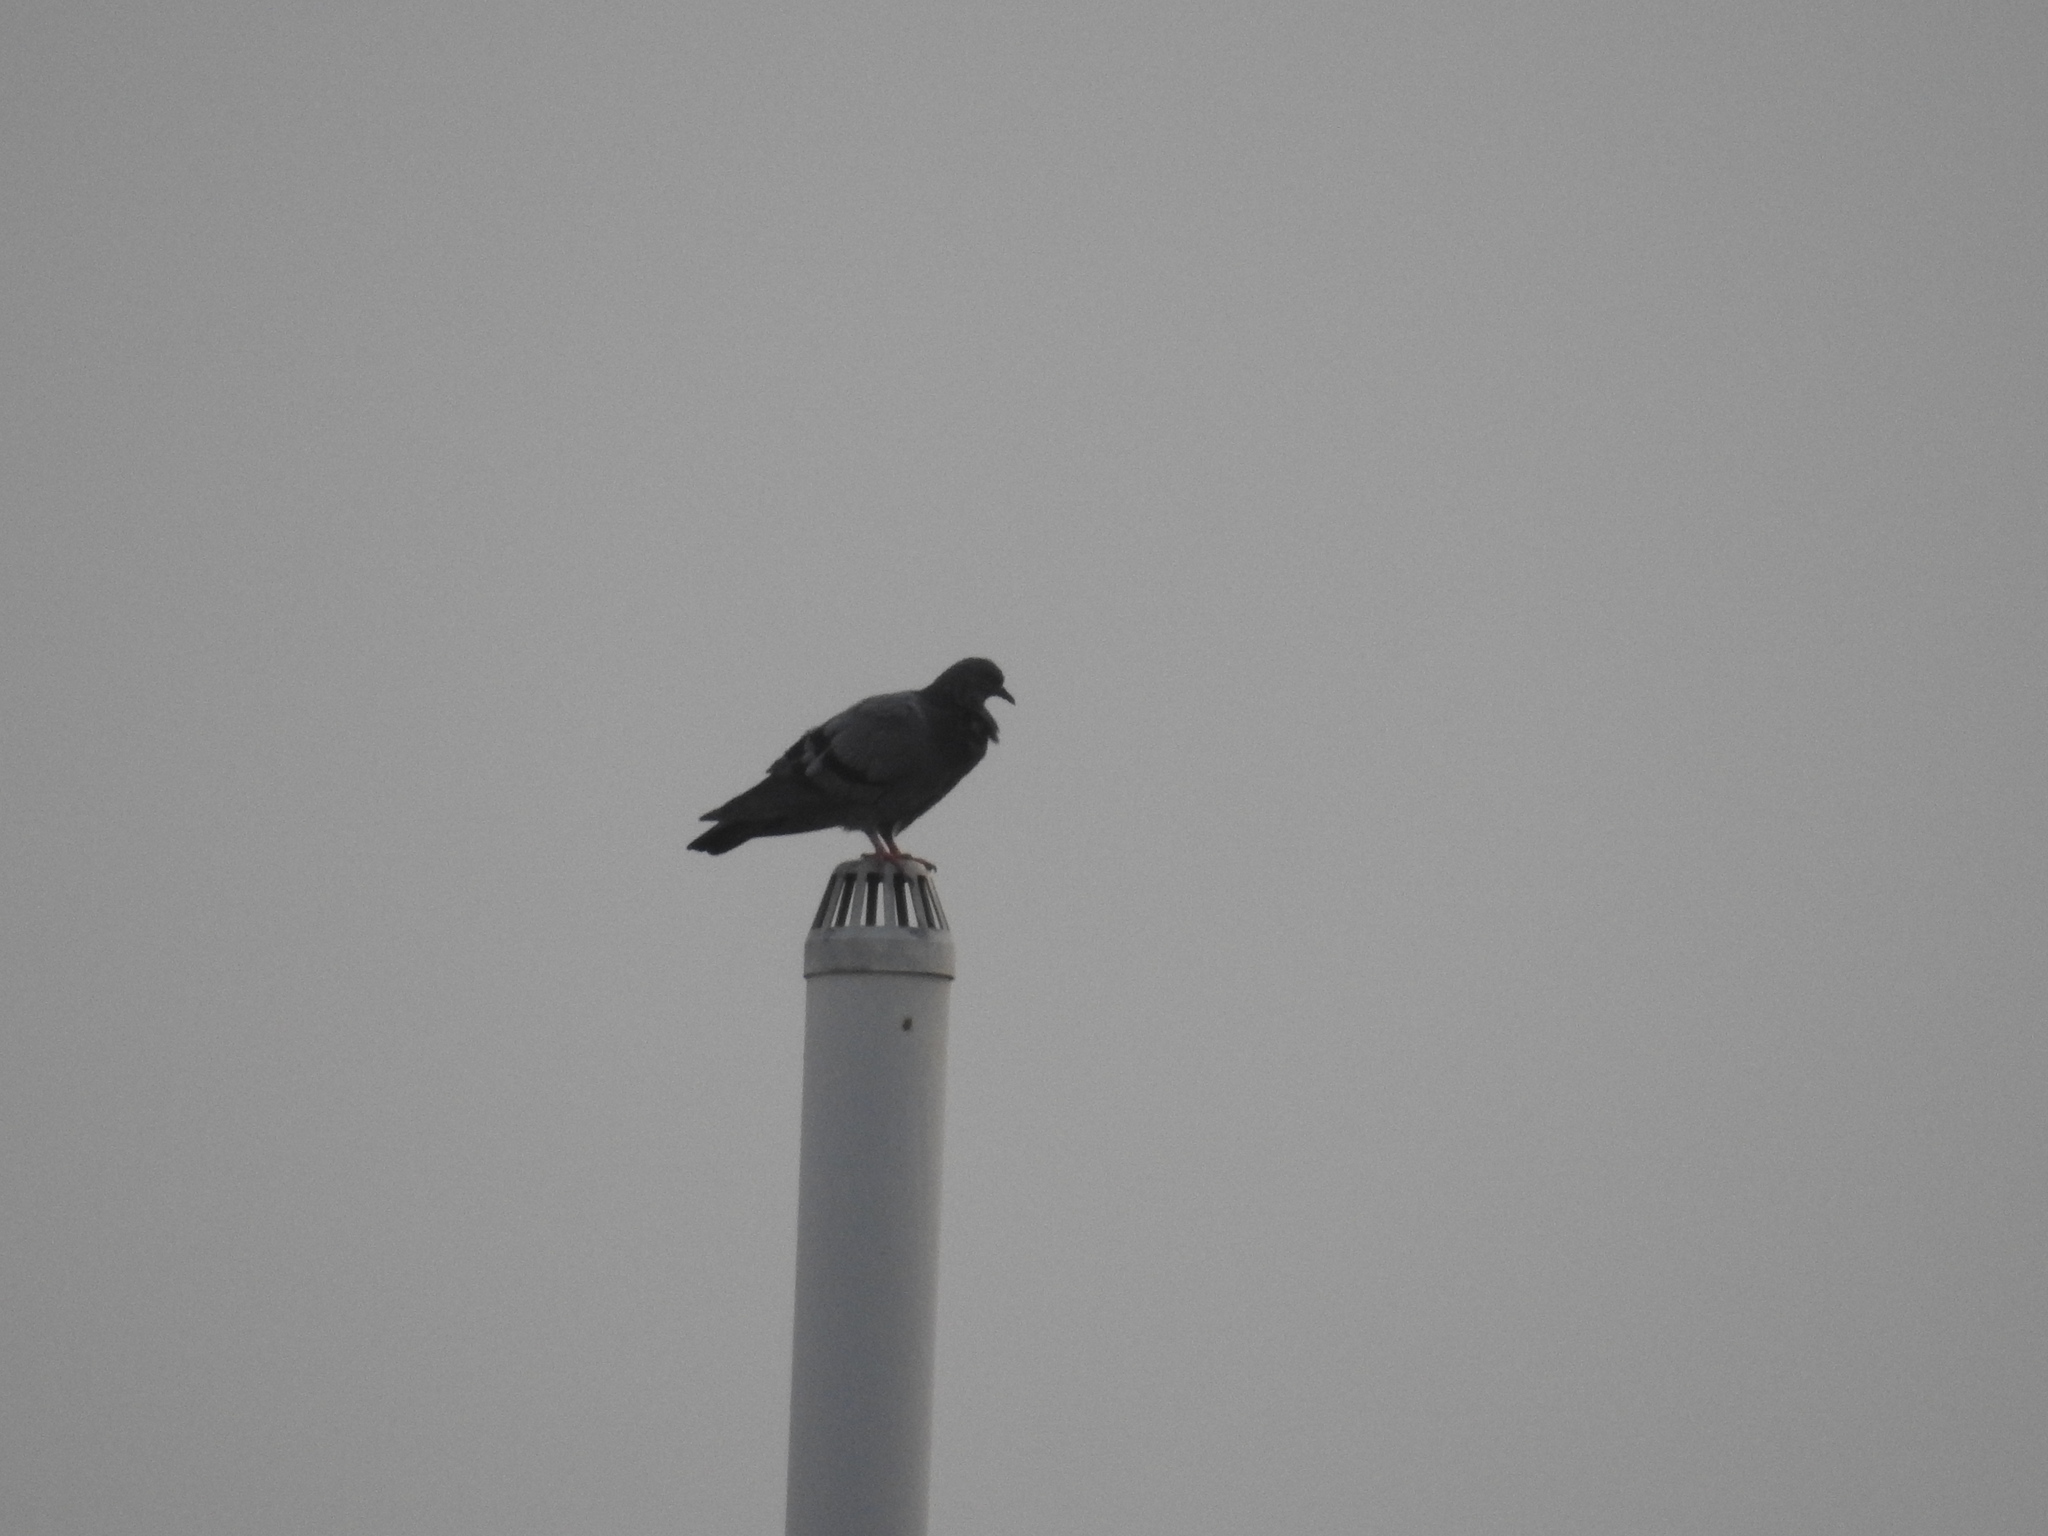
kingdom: Animalia
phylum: Chordata
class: Aves
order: Columbiformes
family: Columbidae
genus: Columba
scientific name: Columba livia
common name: Rock pigeon
